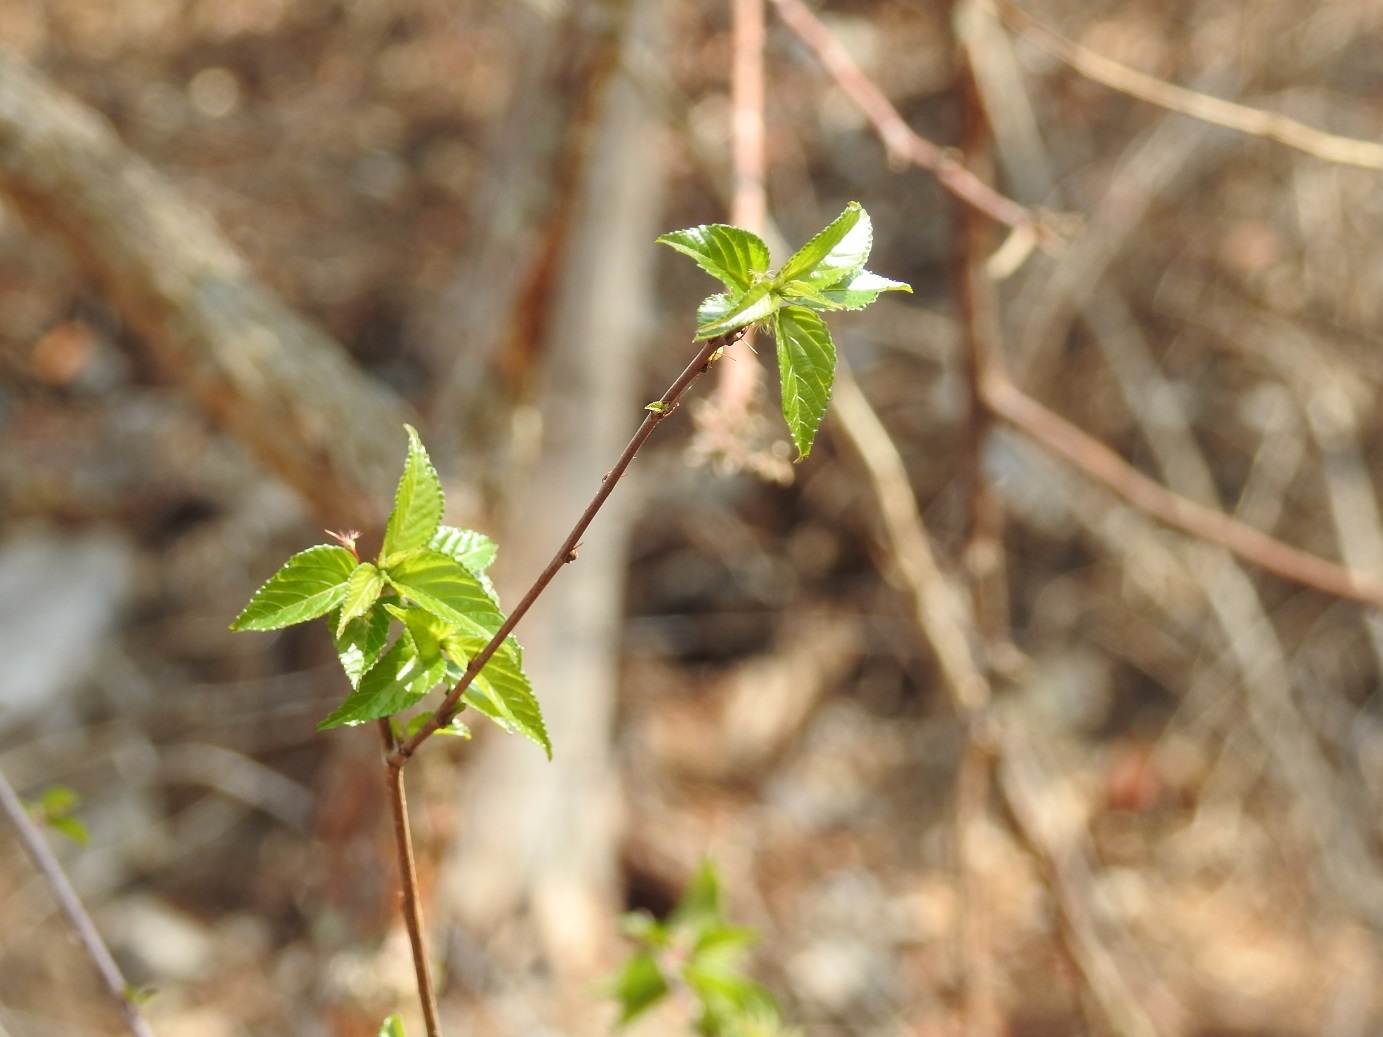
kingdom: Plantae
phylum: Tracheophyta
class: Magnoliopsida
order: Malpighiales
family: Euphorbiaceae
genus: Acalypha
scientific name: Acalypha chiapensis
